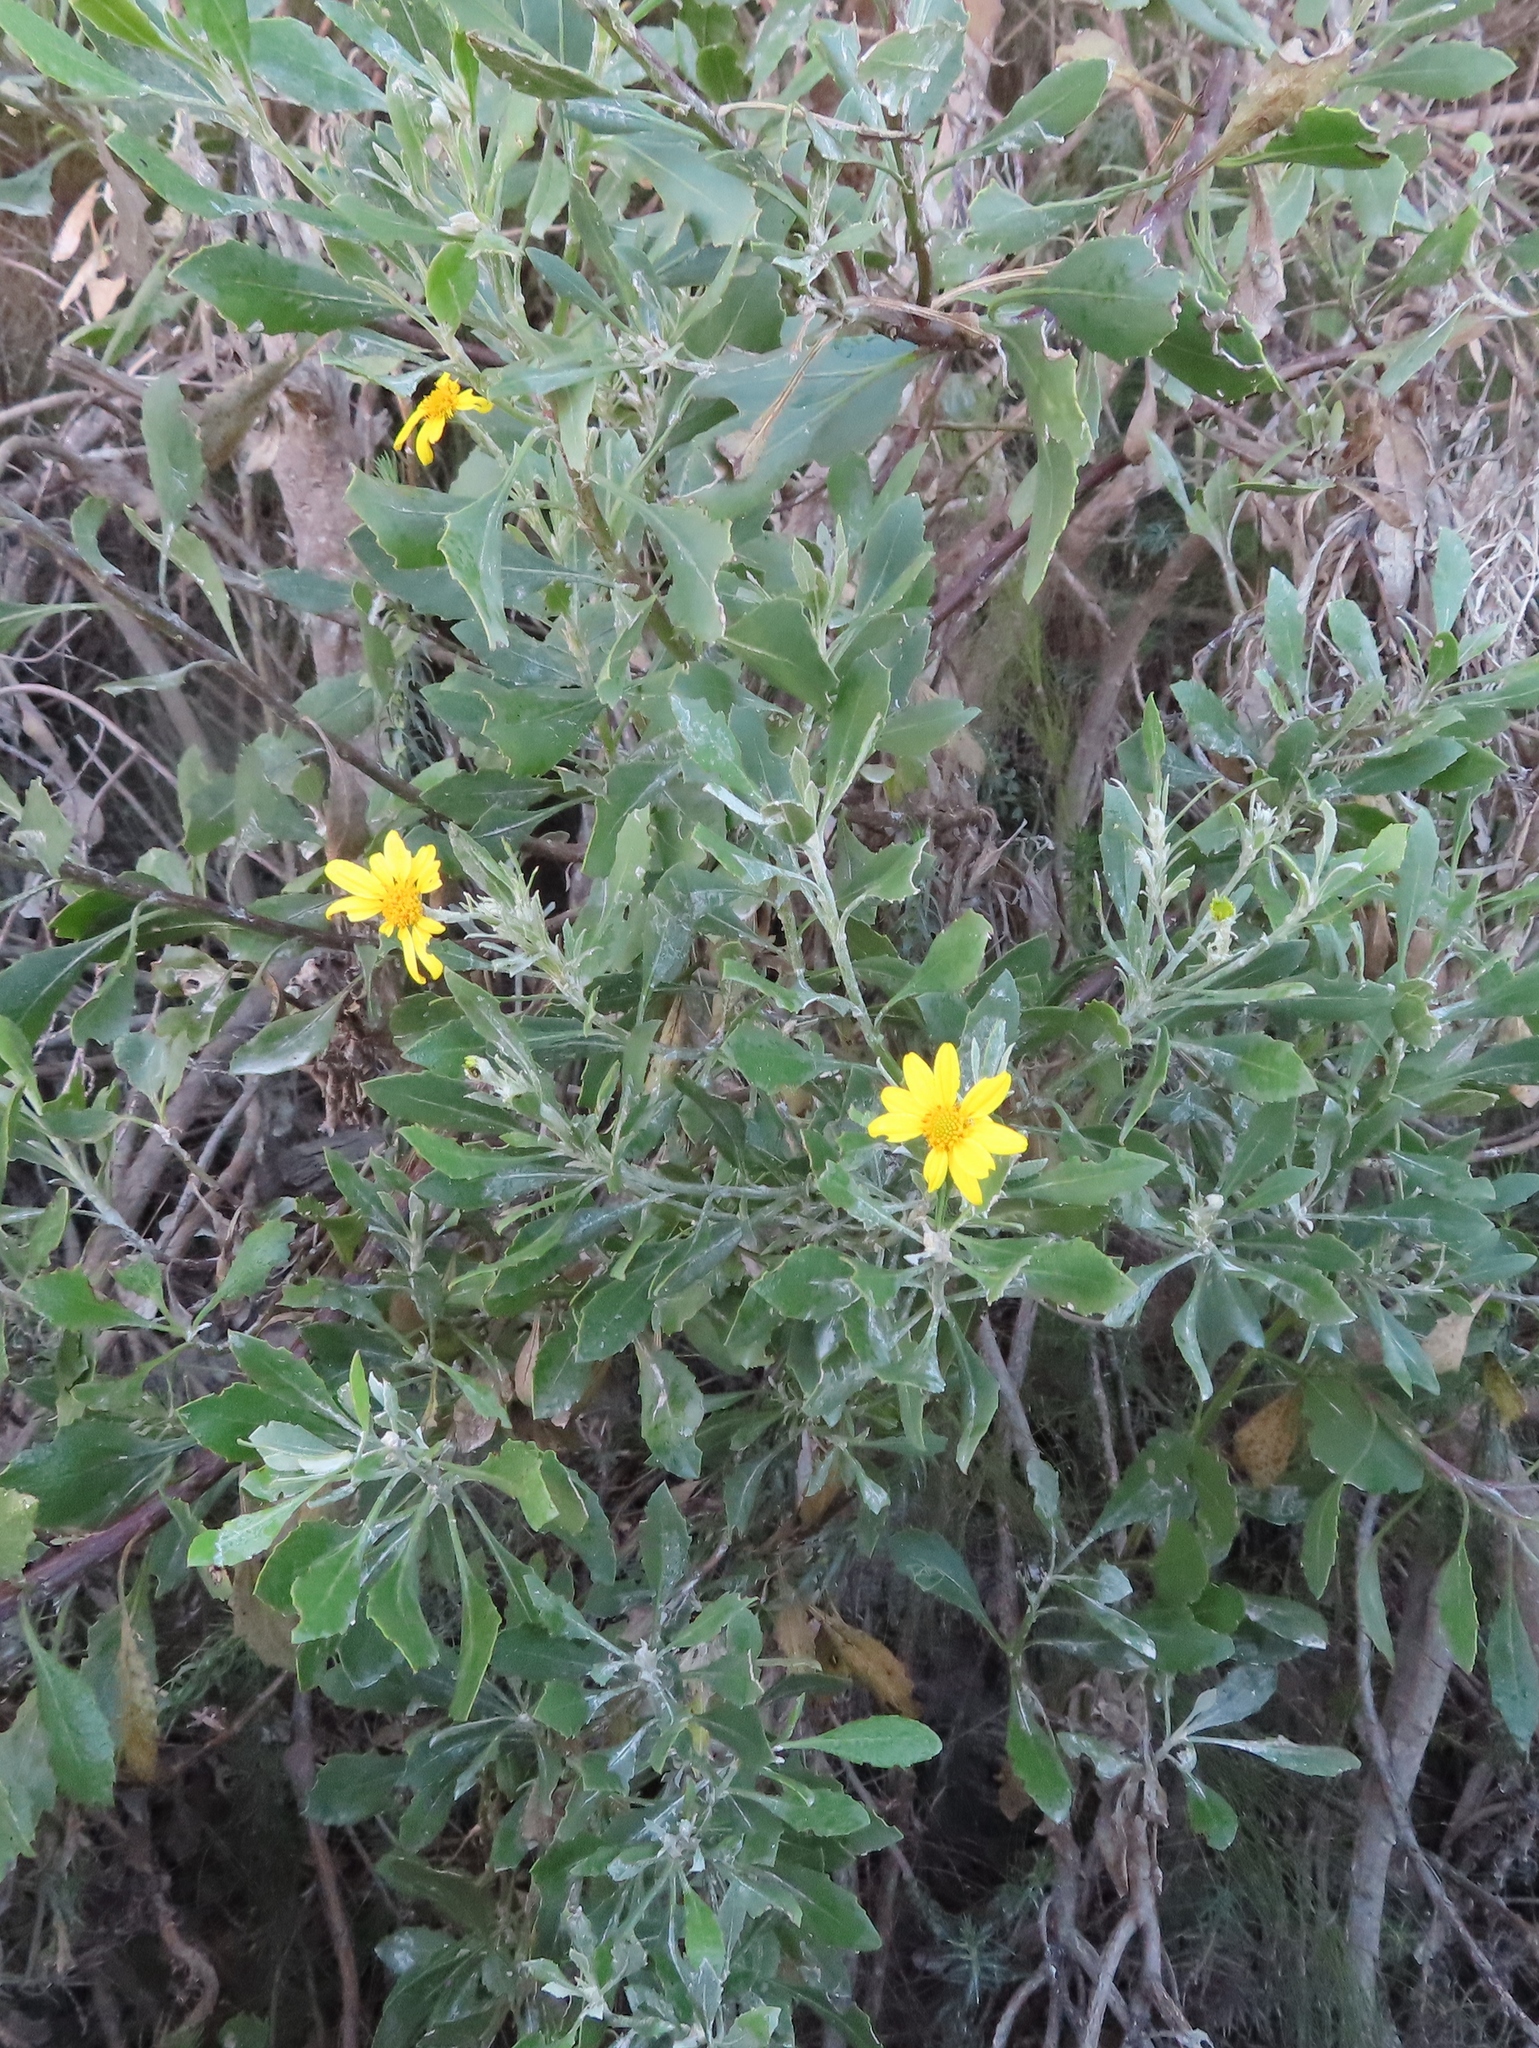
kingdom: Plantae
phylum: Tracheophyta
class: Magnoliopsida
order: Asterales
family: Asteraceae
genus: Osteospermum
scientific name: Osteospermum moniliferum
